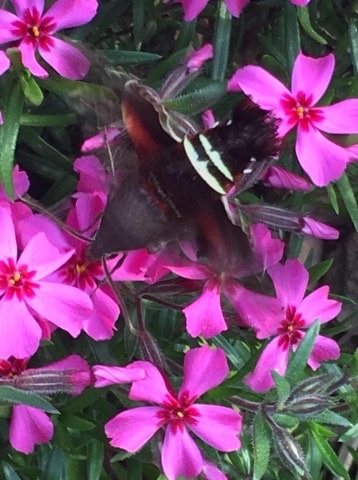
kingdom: Animalia
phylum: Arthropoda
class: Insecta
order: Lepidoptera
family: Sphingidae
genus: Amphion
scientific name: Amphion floridensis
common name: Nessus sphinx
